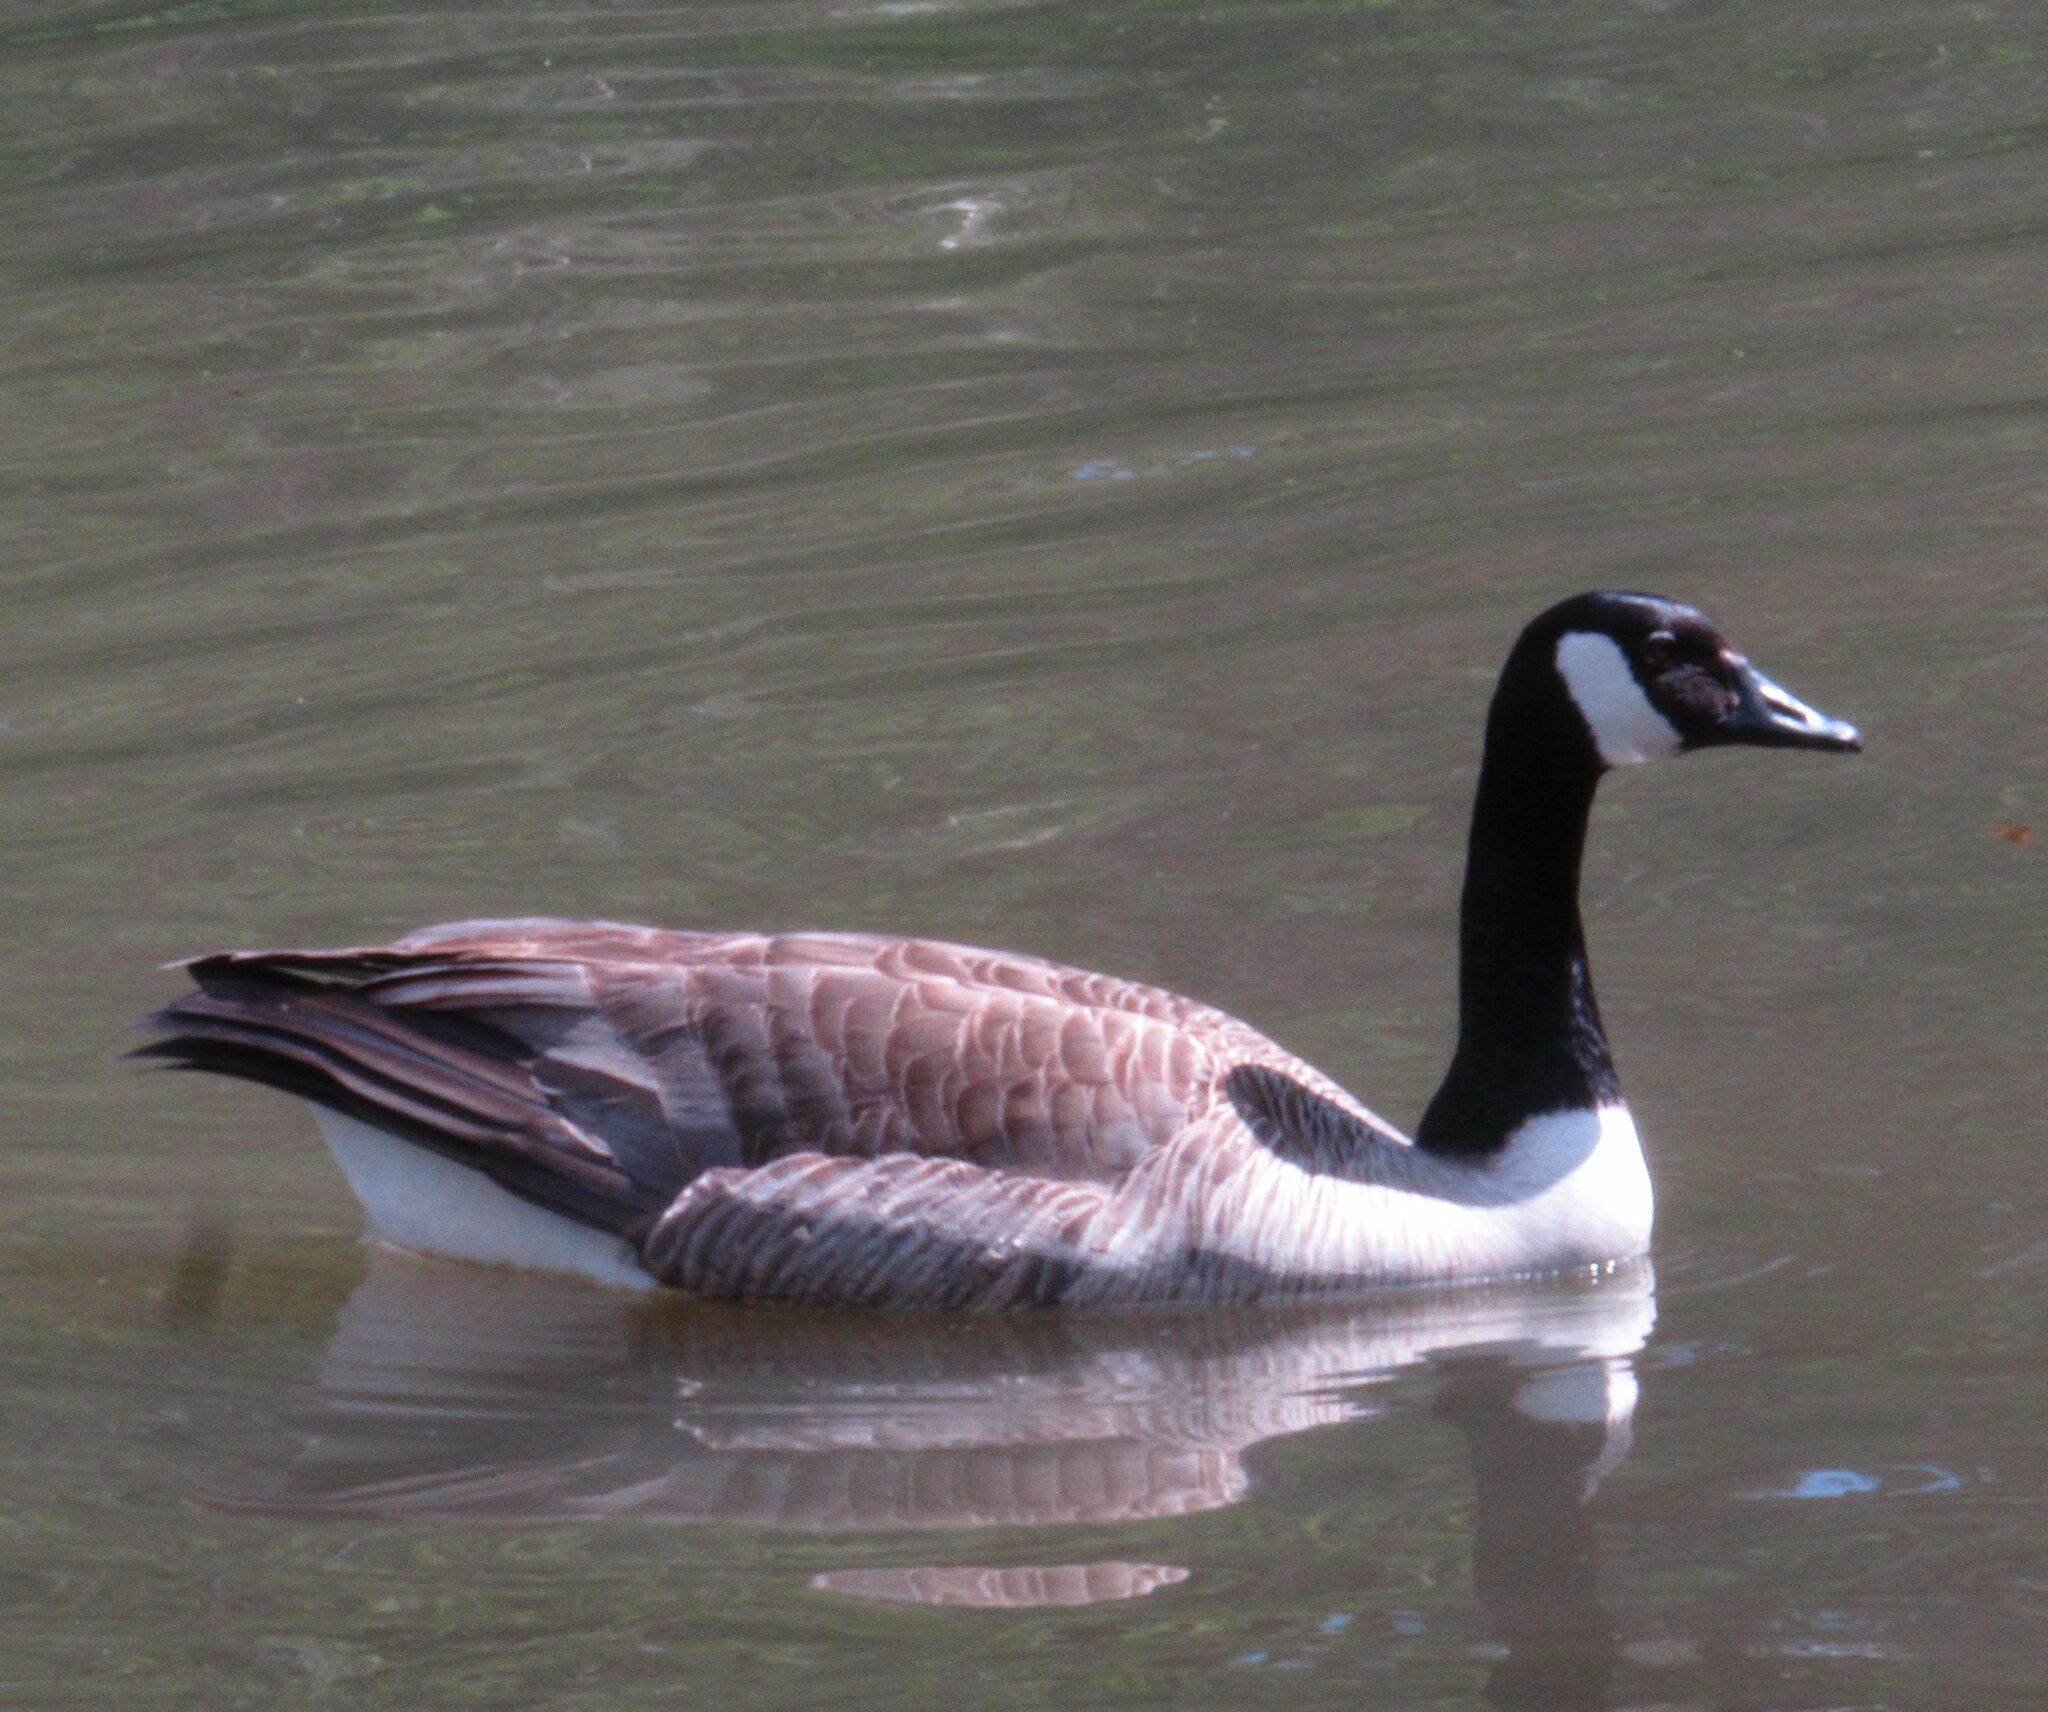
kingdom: Animalia
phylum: Chordata
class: Aves
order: Anseriformes
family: Anatidae
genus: Branta
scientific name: Branta canadensis
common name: Canada goose
